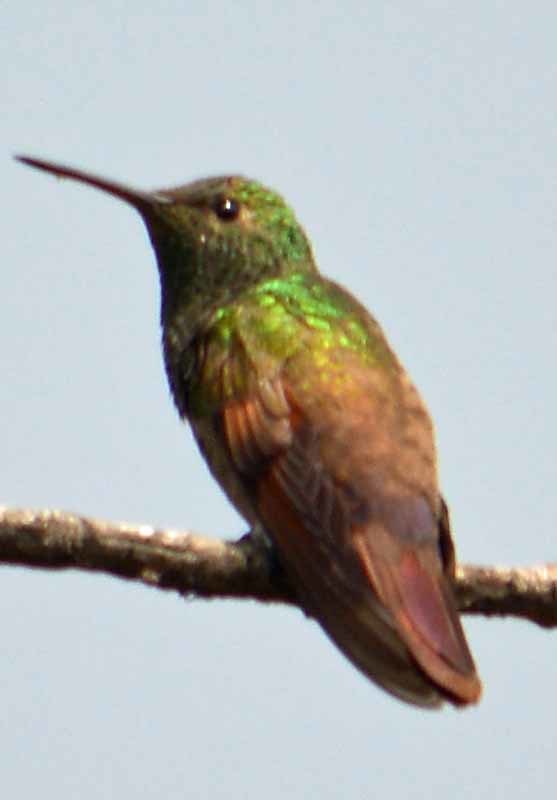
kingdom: Animalia
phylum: Chordata
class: Aves
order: Apodiformes
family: Trochilidae
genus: Saucerottia
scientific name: Saucerottia beryllina
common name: Berylline hummingbird
